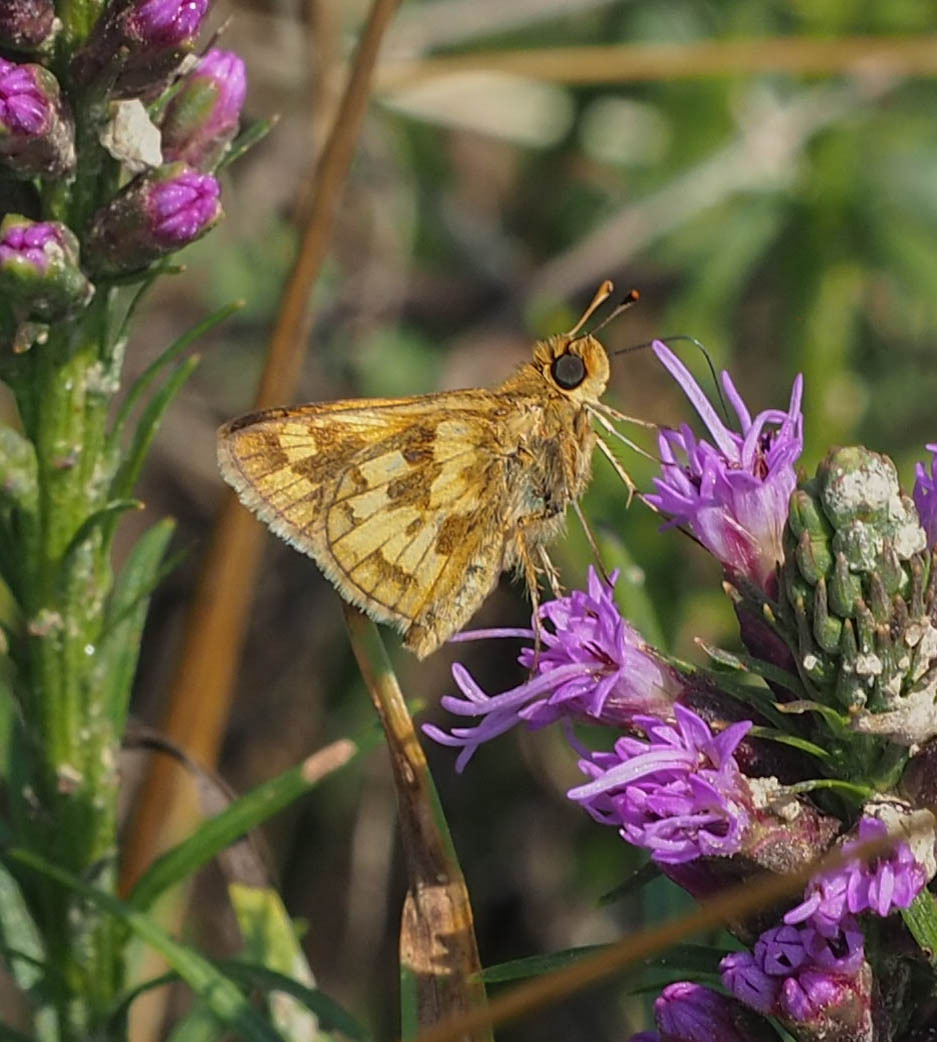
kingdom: Animalia
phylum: Arthropoda
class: Insecta
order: Lepidoptera
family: Hesperiidae
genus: Polites
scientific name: Polites coras
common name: Peck's skipper
